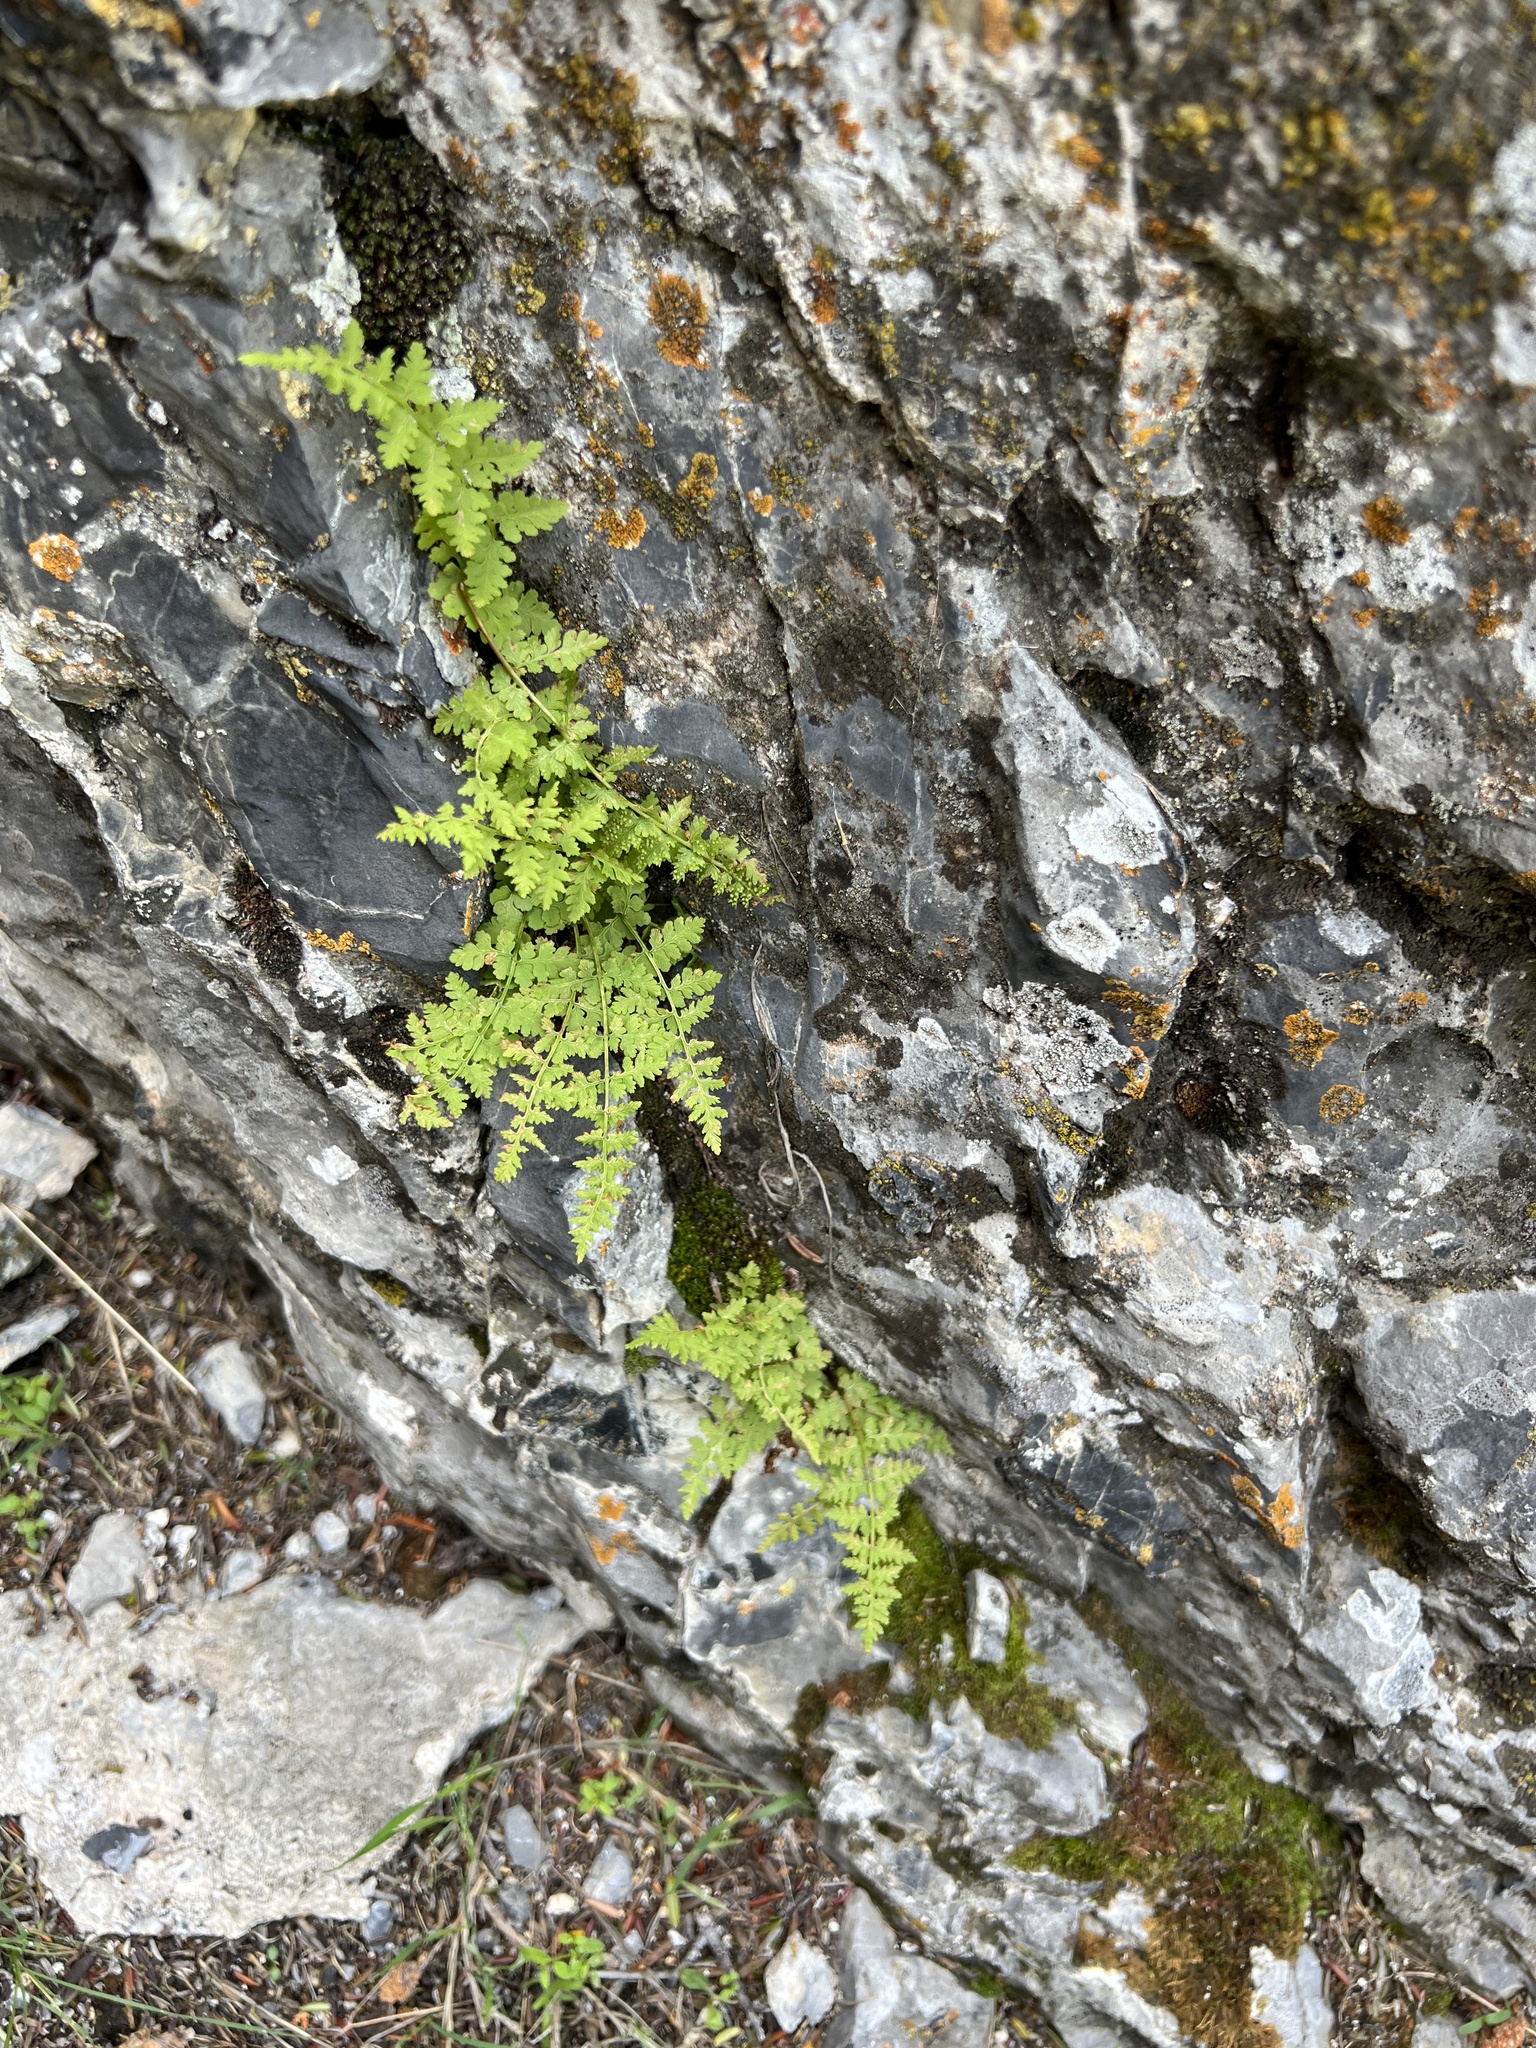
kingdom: Plantae
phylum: Tracheophyta
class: Polypodiopsida
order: Polypodiales
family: Cystopteridaceae
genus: Cystopteris
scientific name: Cystopteris fragilis
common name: Brittle bladder fern
